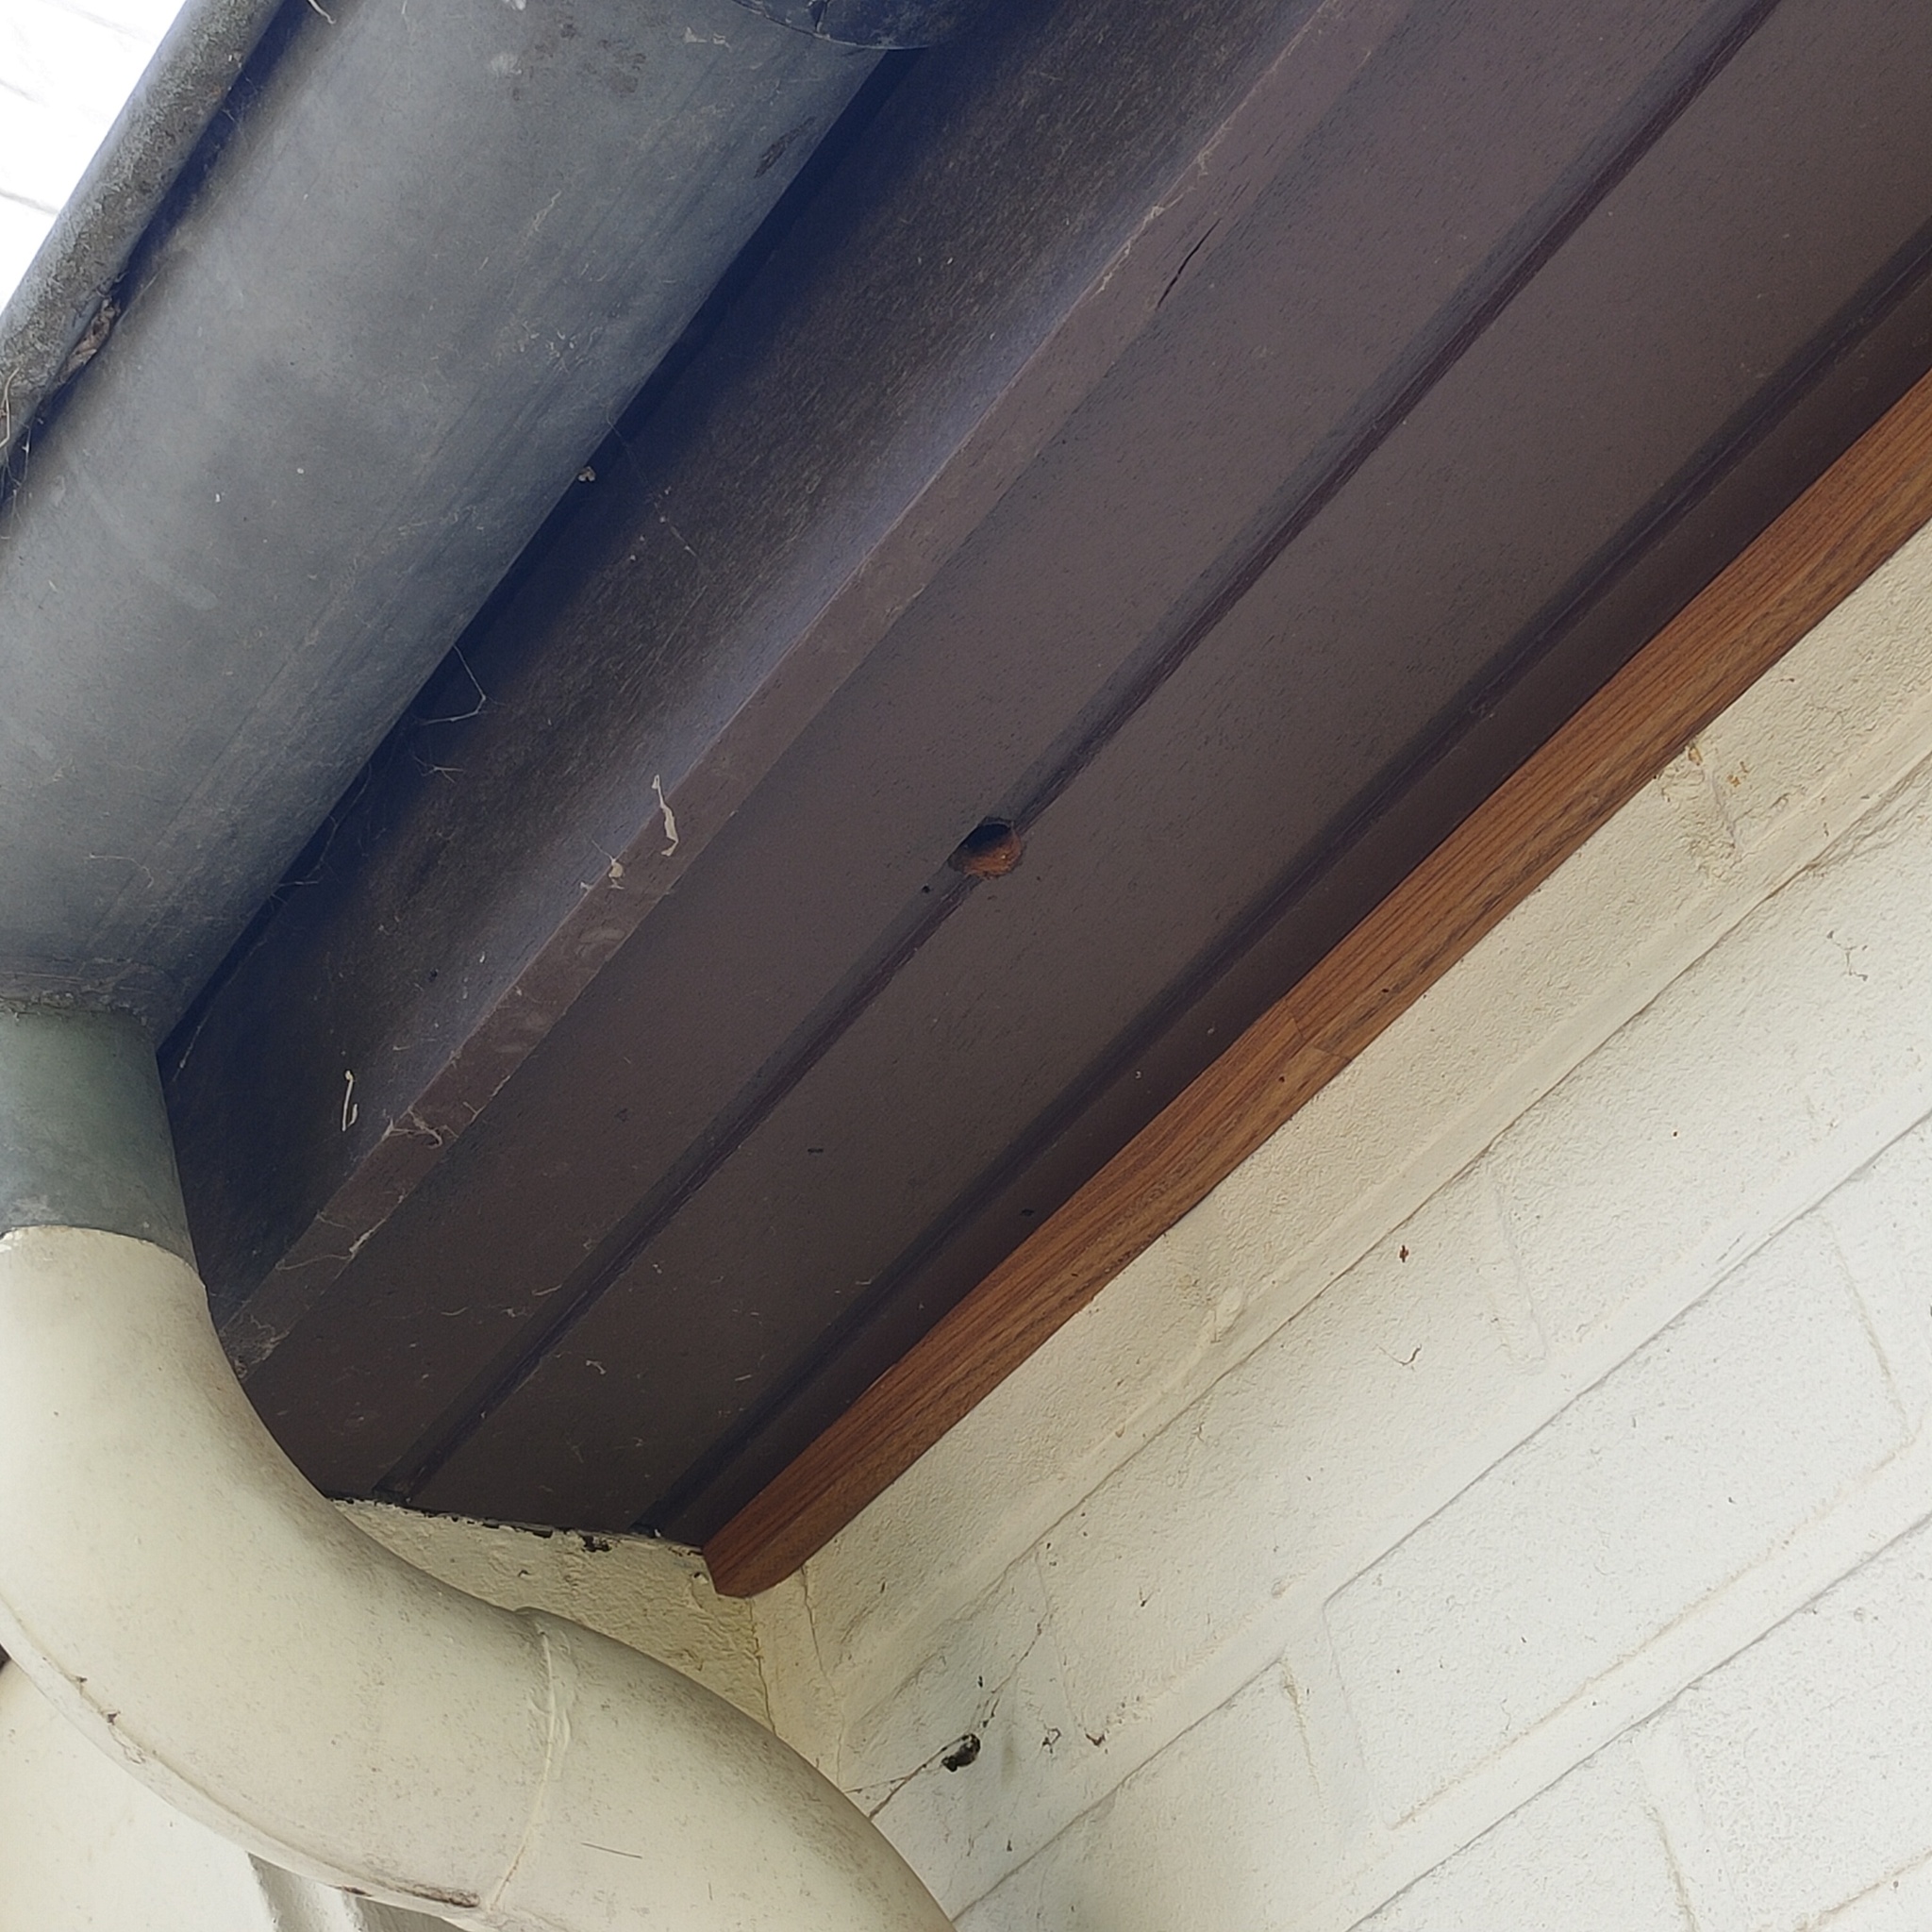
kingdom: Animalia
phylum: Arthropoda
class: Insecta
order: Hymenoptera
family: Vespidae
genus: Vespa
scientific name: Vespa velutina
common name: Asian hornet
